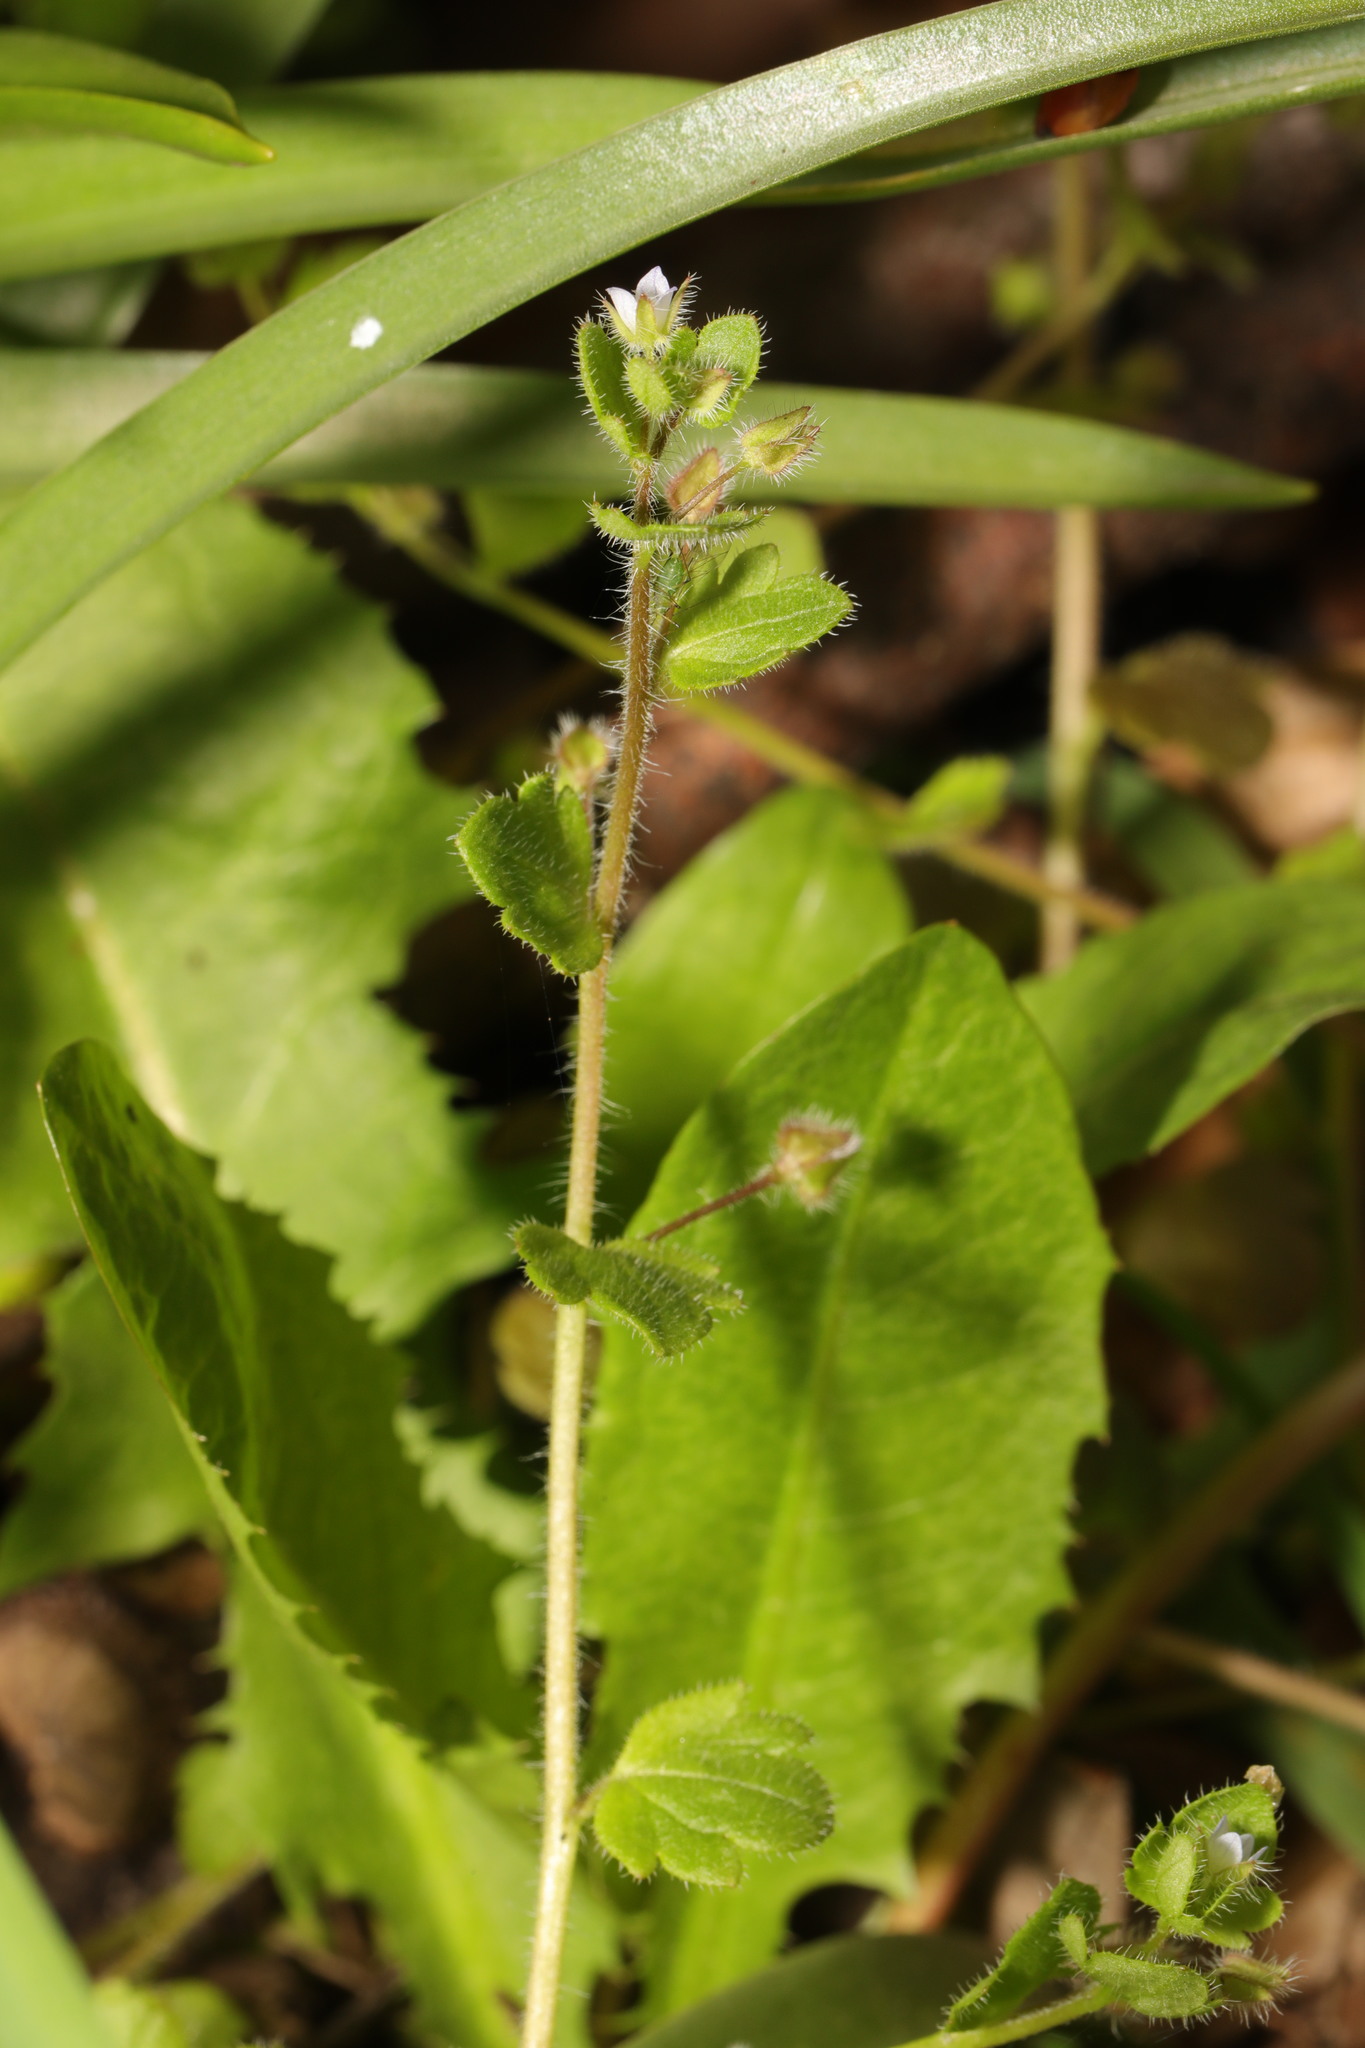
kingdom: Plantae
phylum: Tracheophyta
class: Magnoliopsida
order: Lamiales
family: Plantaginaceae
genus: Veronica
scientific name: Veronica hederifolia
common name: Ivy-leaved speedwell
